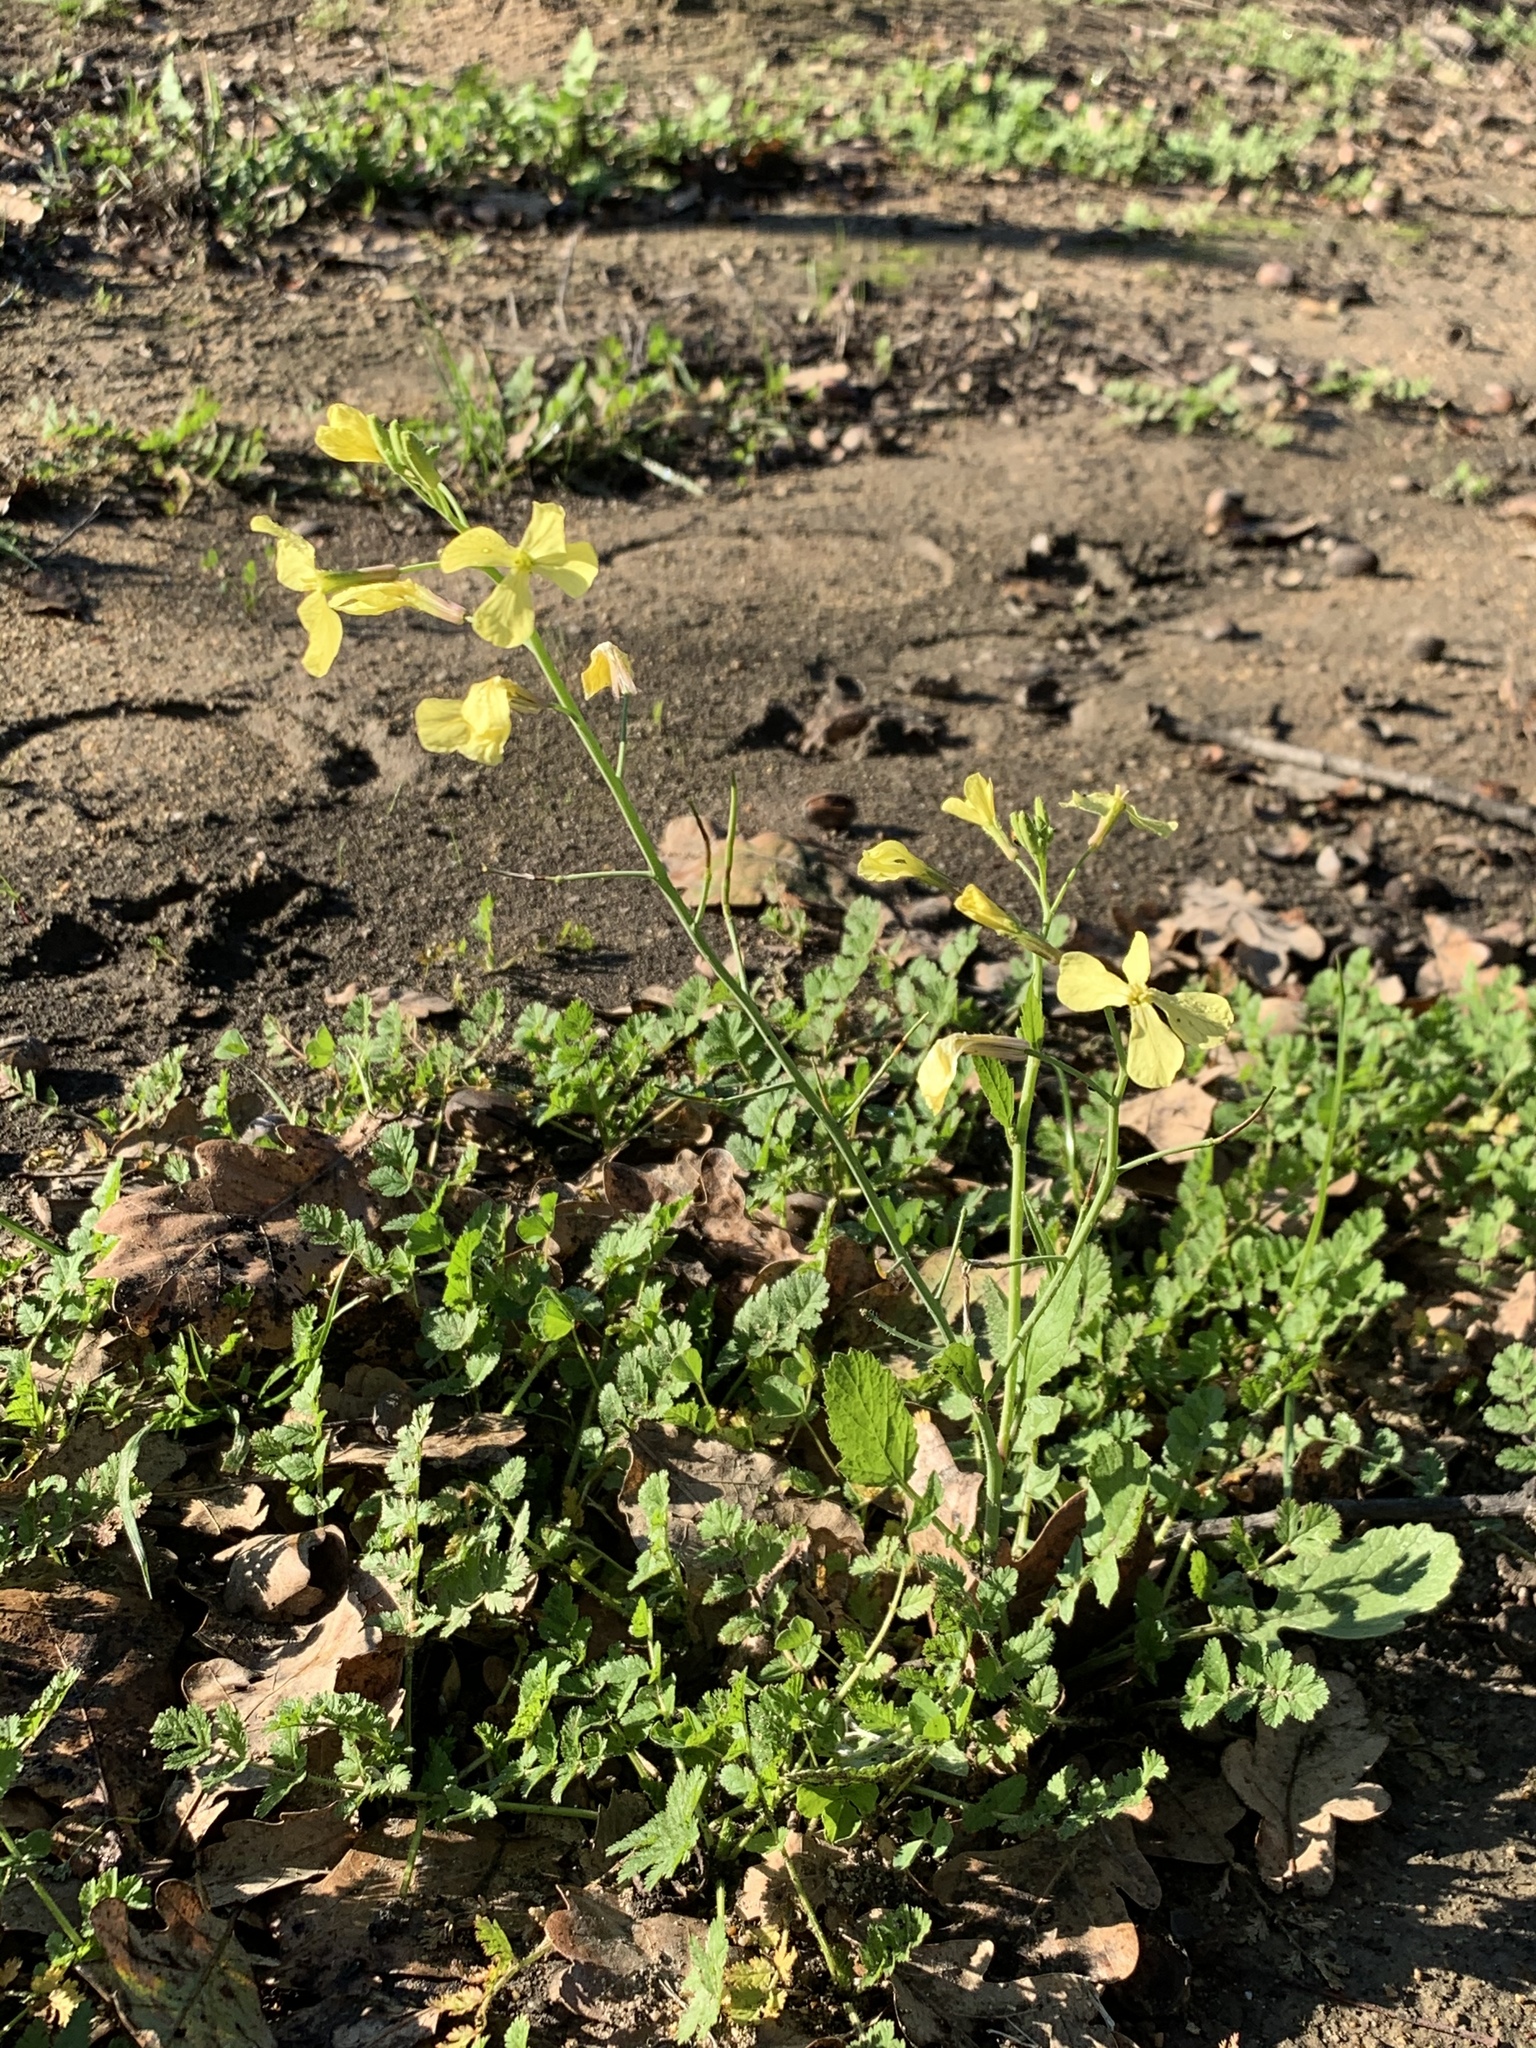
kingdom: Plantae
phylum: Tracheophyta
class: Magnoliopsida
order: Brassicales
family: Brassicaceae
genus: Raphanus
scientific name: Raphanus raphanistrum
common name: Wild radish
